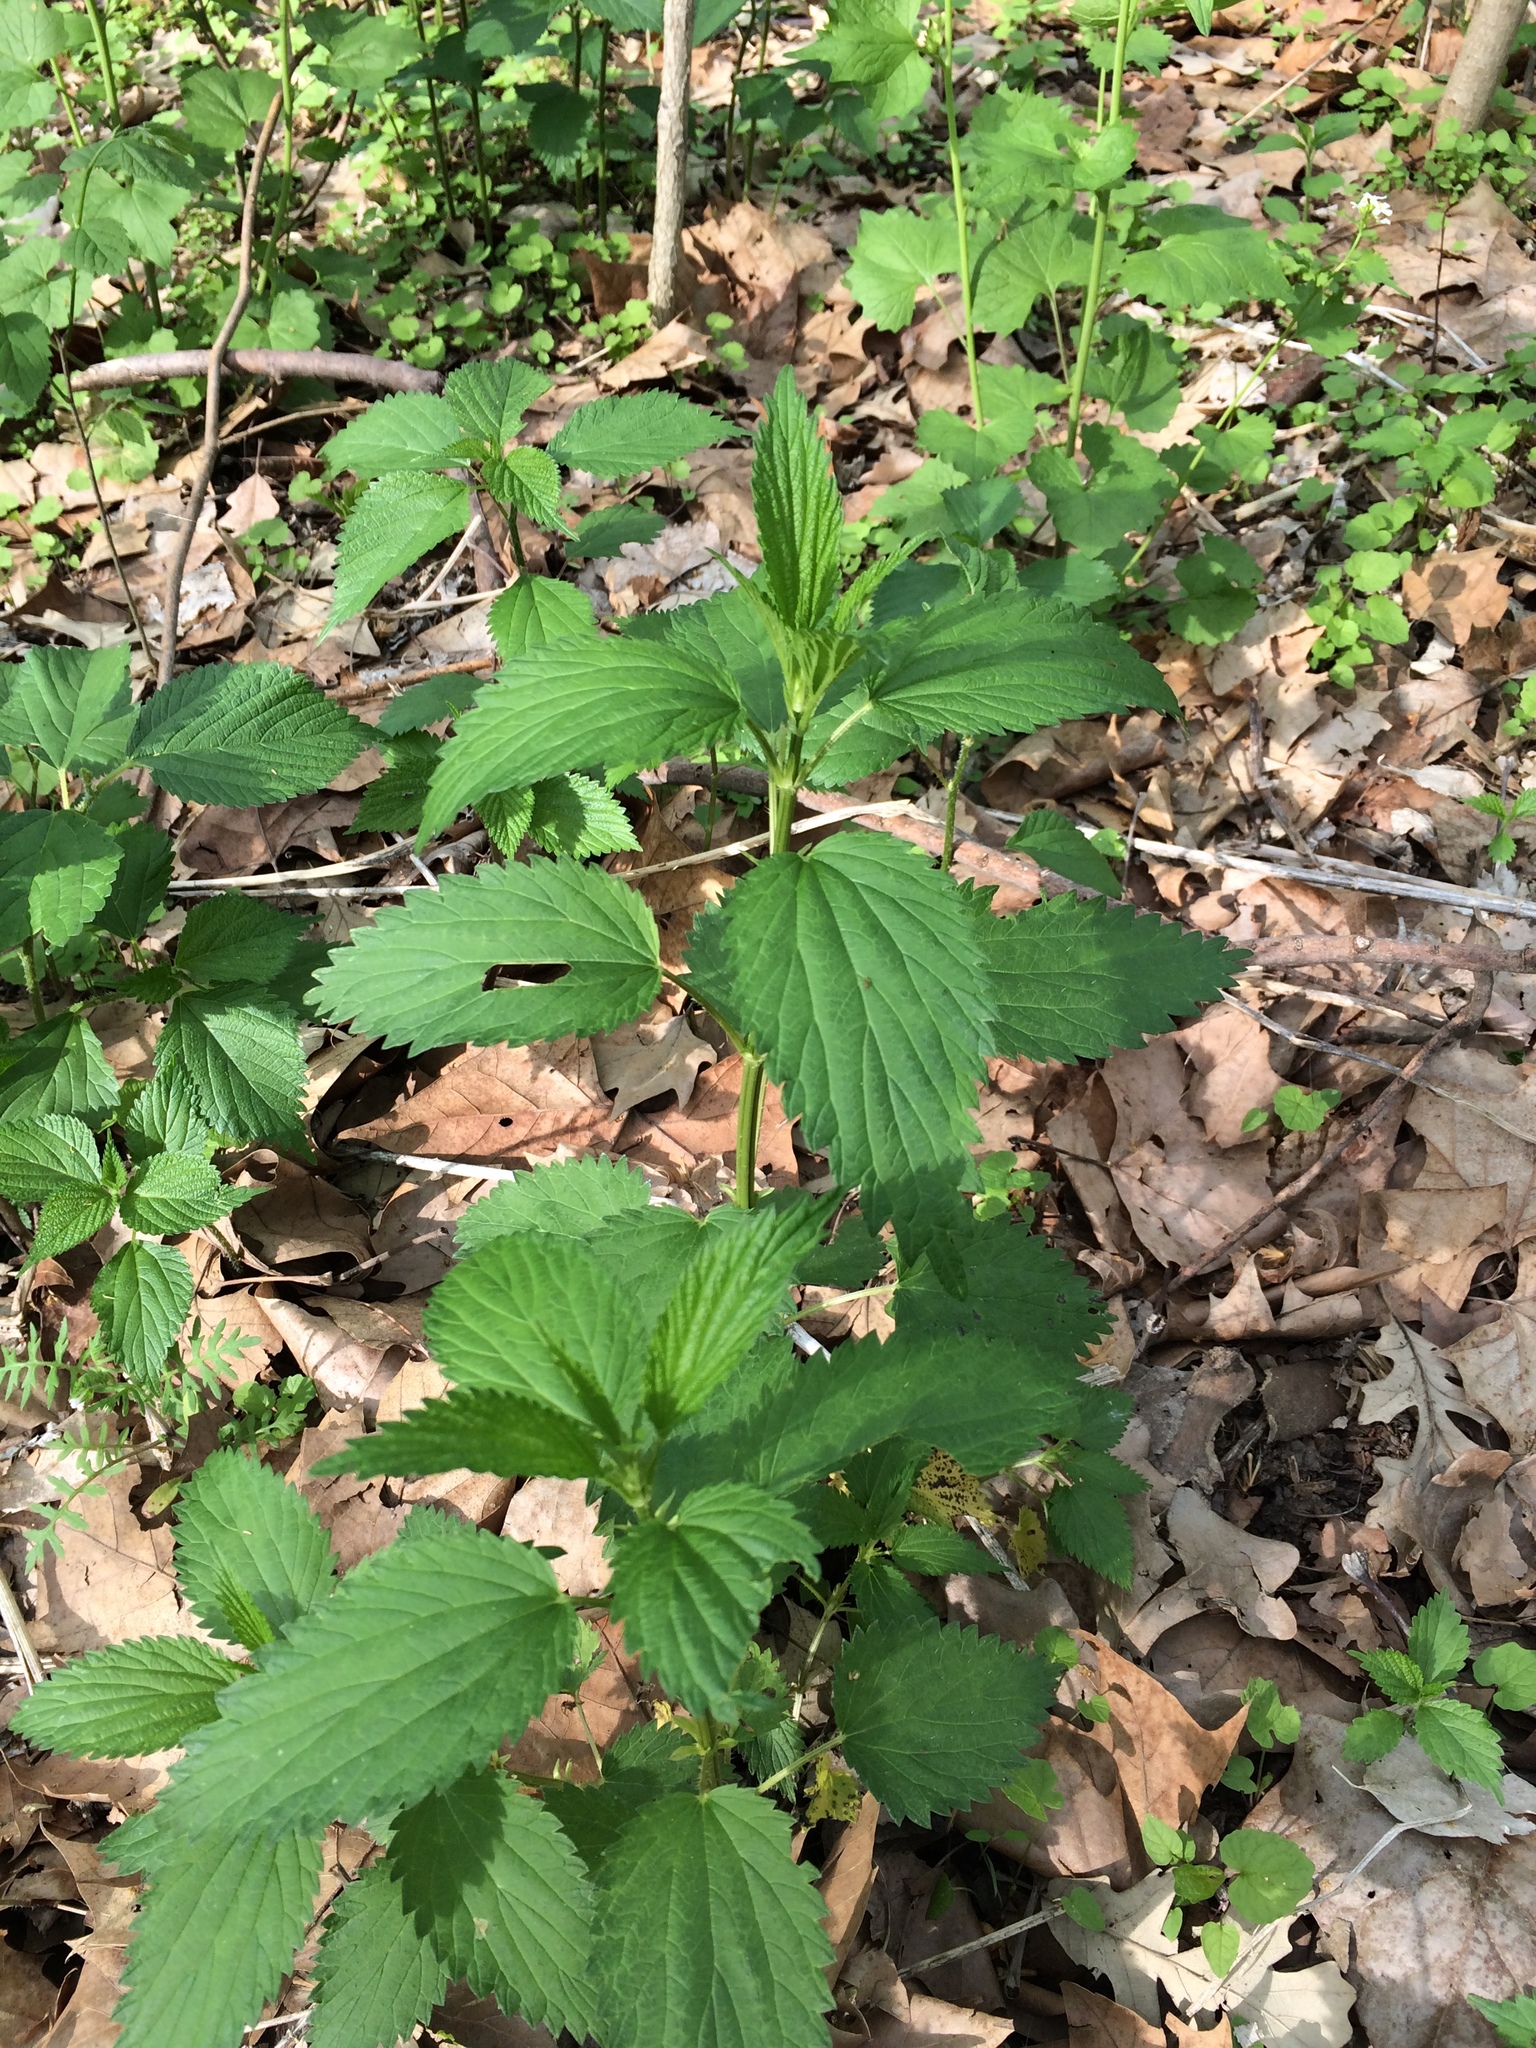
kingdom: Plantae
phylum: Tracheophyta
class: Magnoliopsida
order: Rosales
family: Urticaceae
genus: Urtica
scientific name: Urtica dioica
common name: Common nettle
